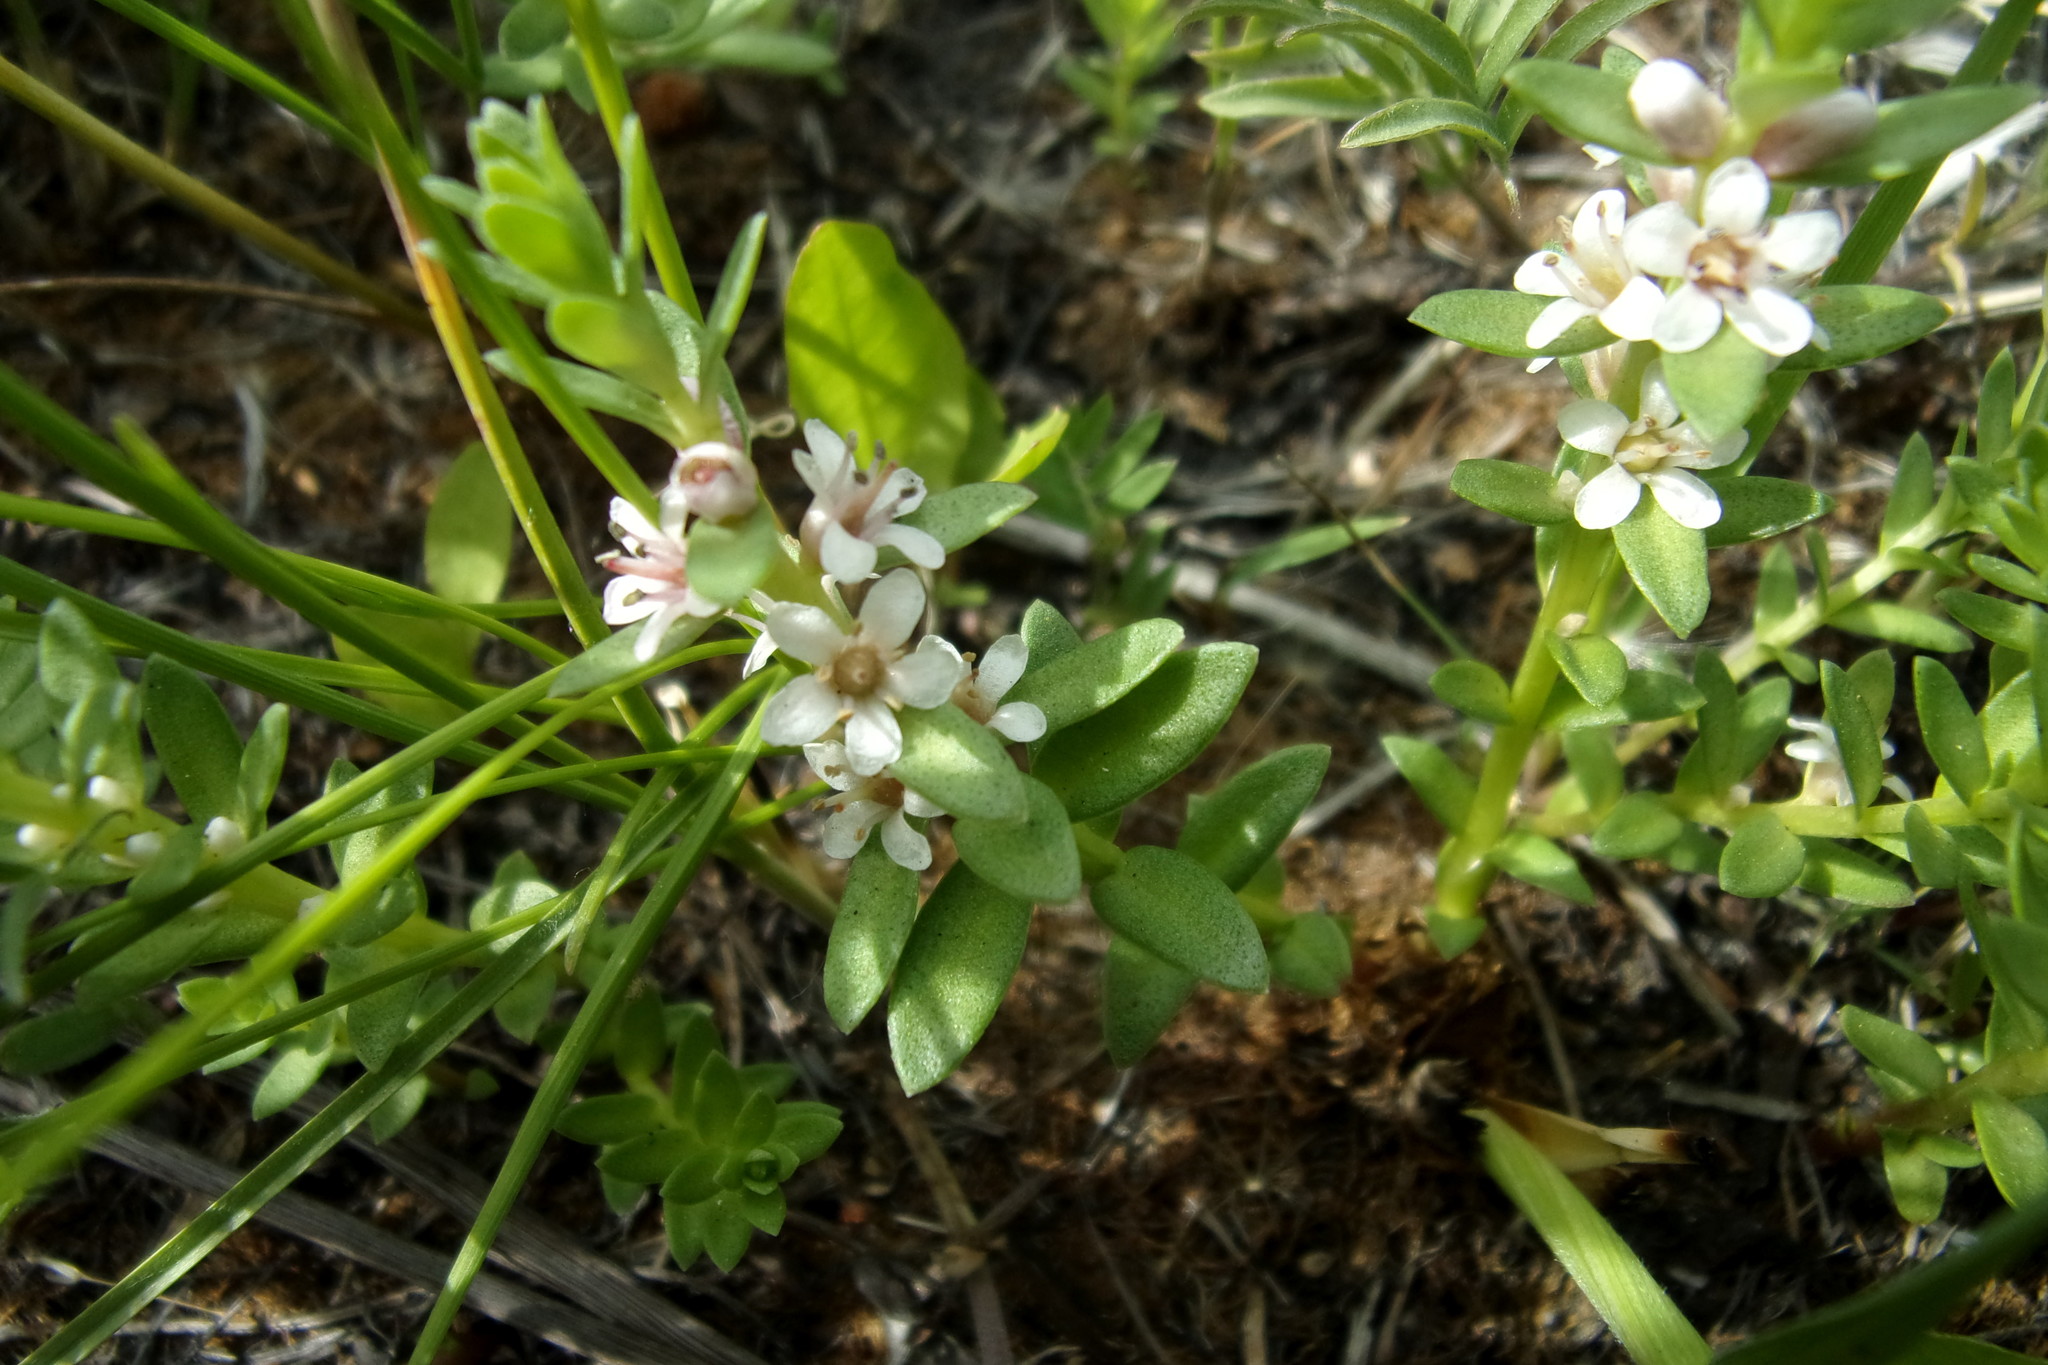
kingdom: Plantae
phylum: Tracheophyta
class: Magnoliopsida
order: Ericales
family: Primulaceae
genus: Lysimachia
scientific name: Lysimachia maritima
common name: Sea milkwort
